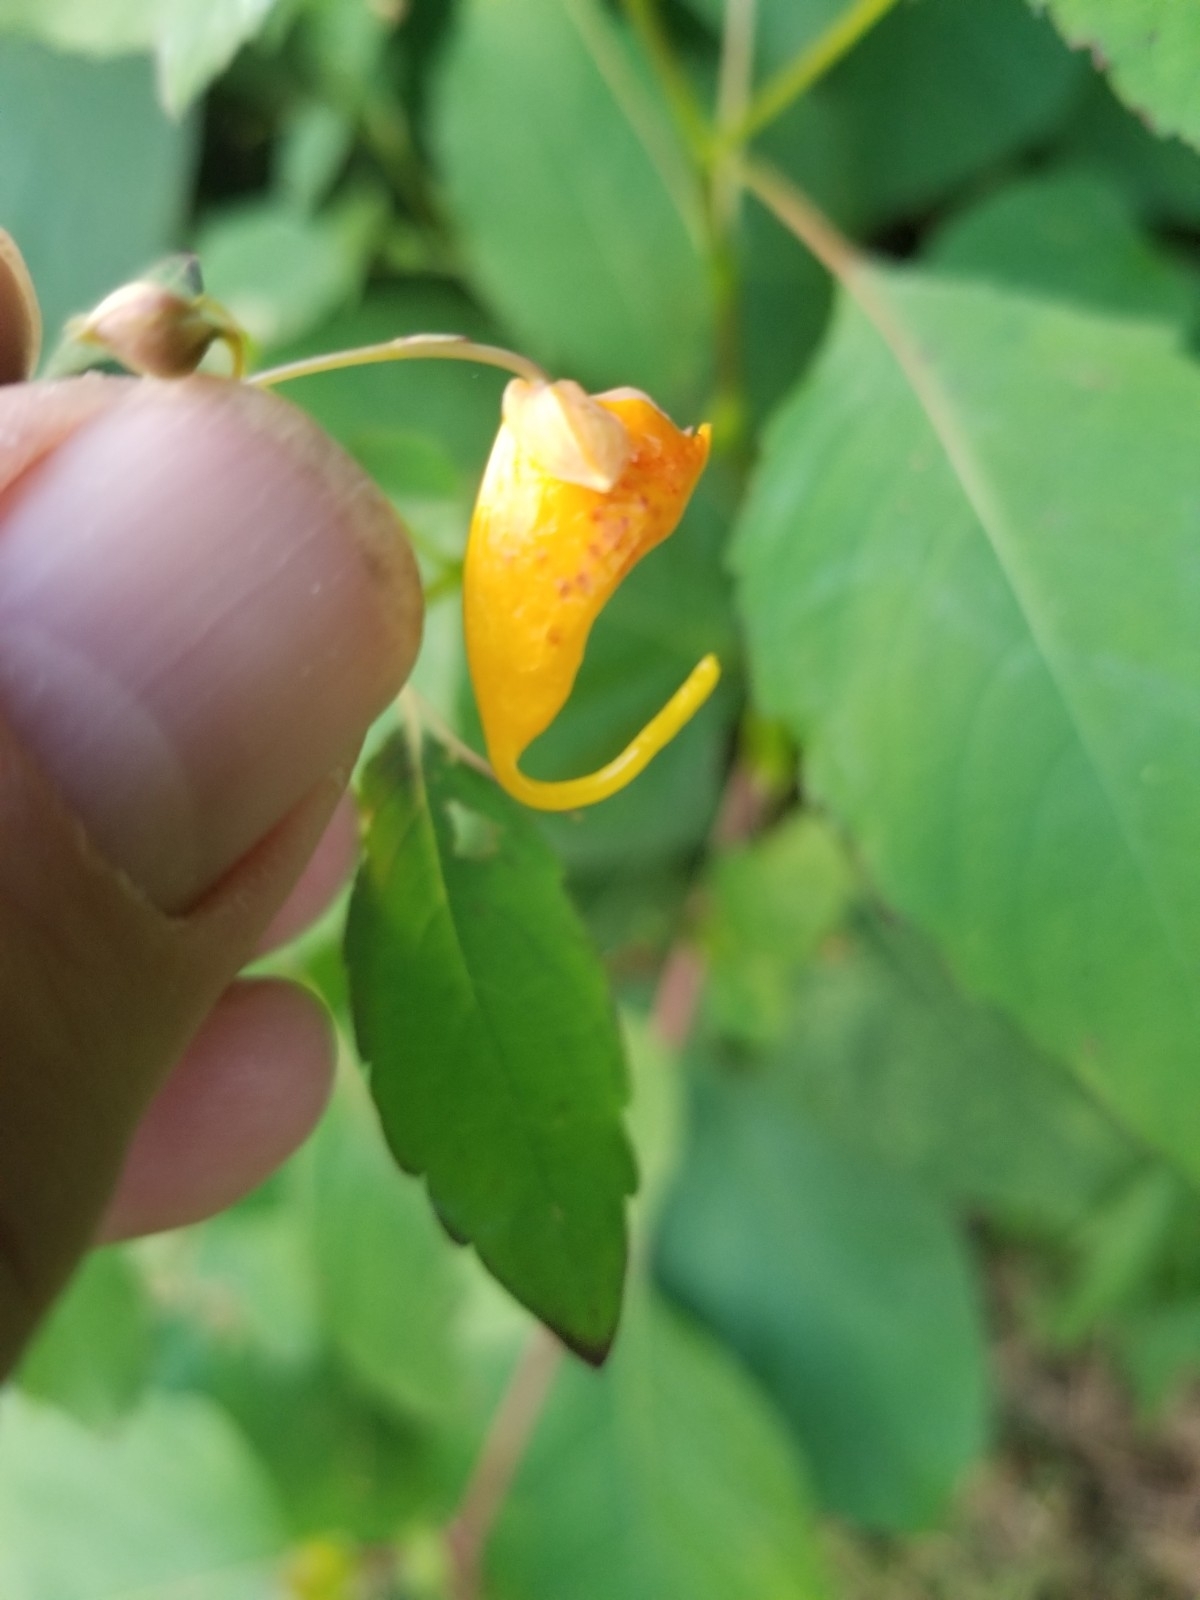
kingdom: Plantae
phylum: Tracheophyta
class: Magnoliopsida
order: Ericales
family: Balsaminaceae
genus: Impatiens
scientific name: Impatiens capensis
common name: Orange balsam
